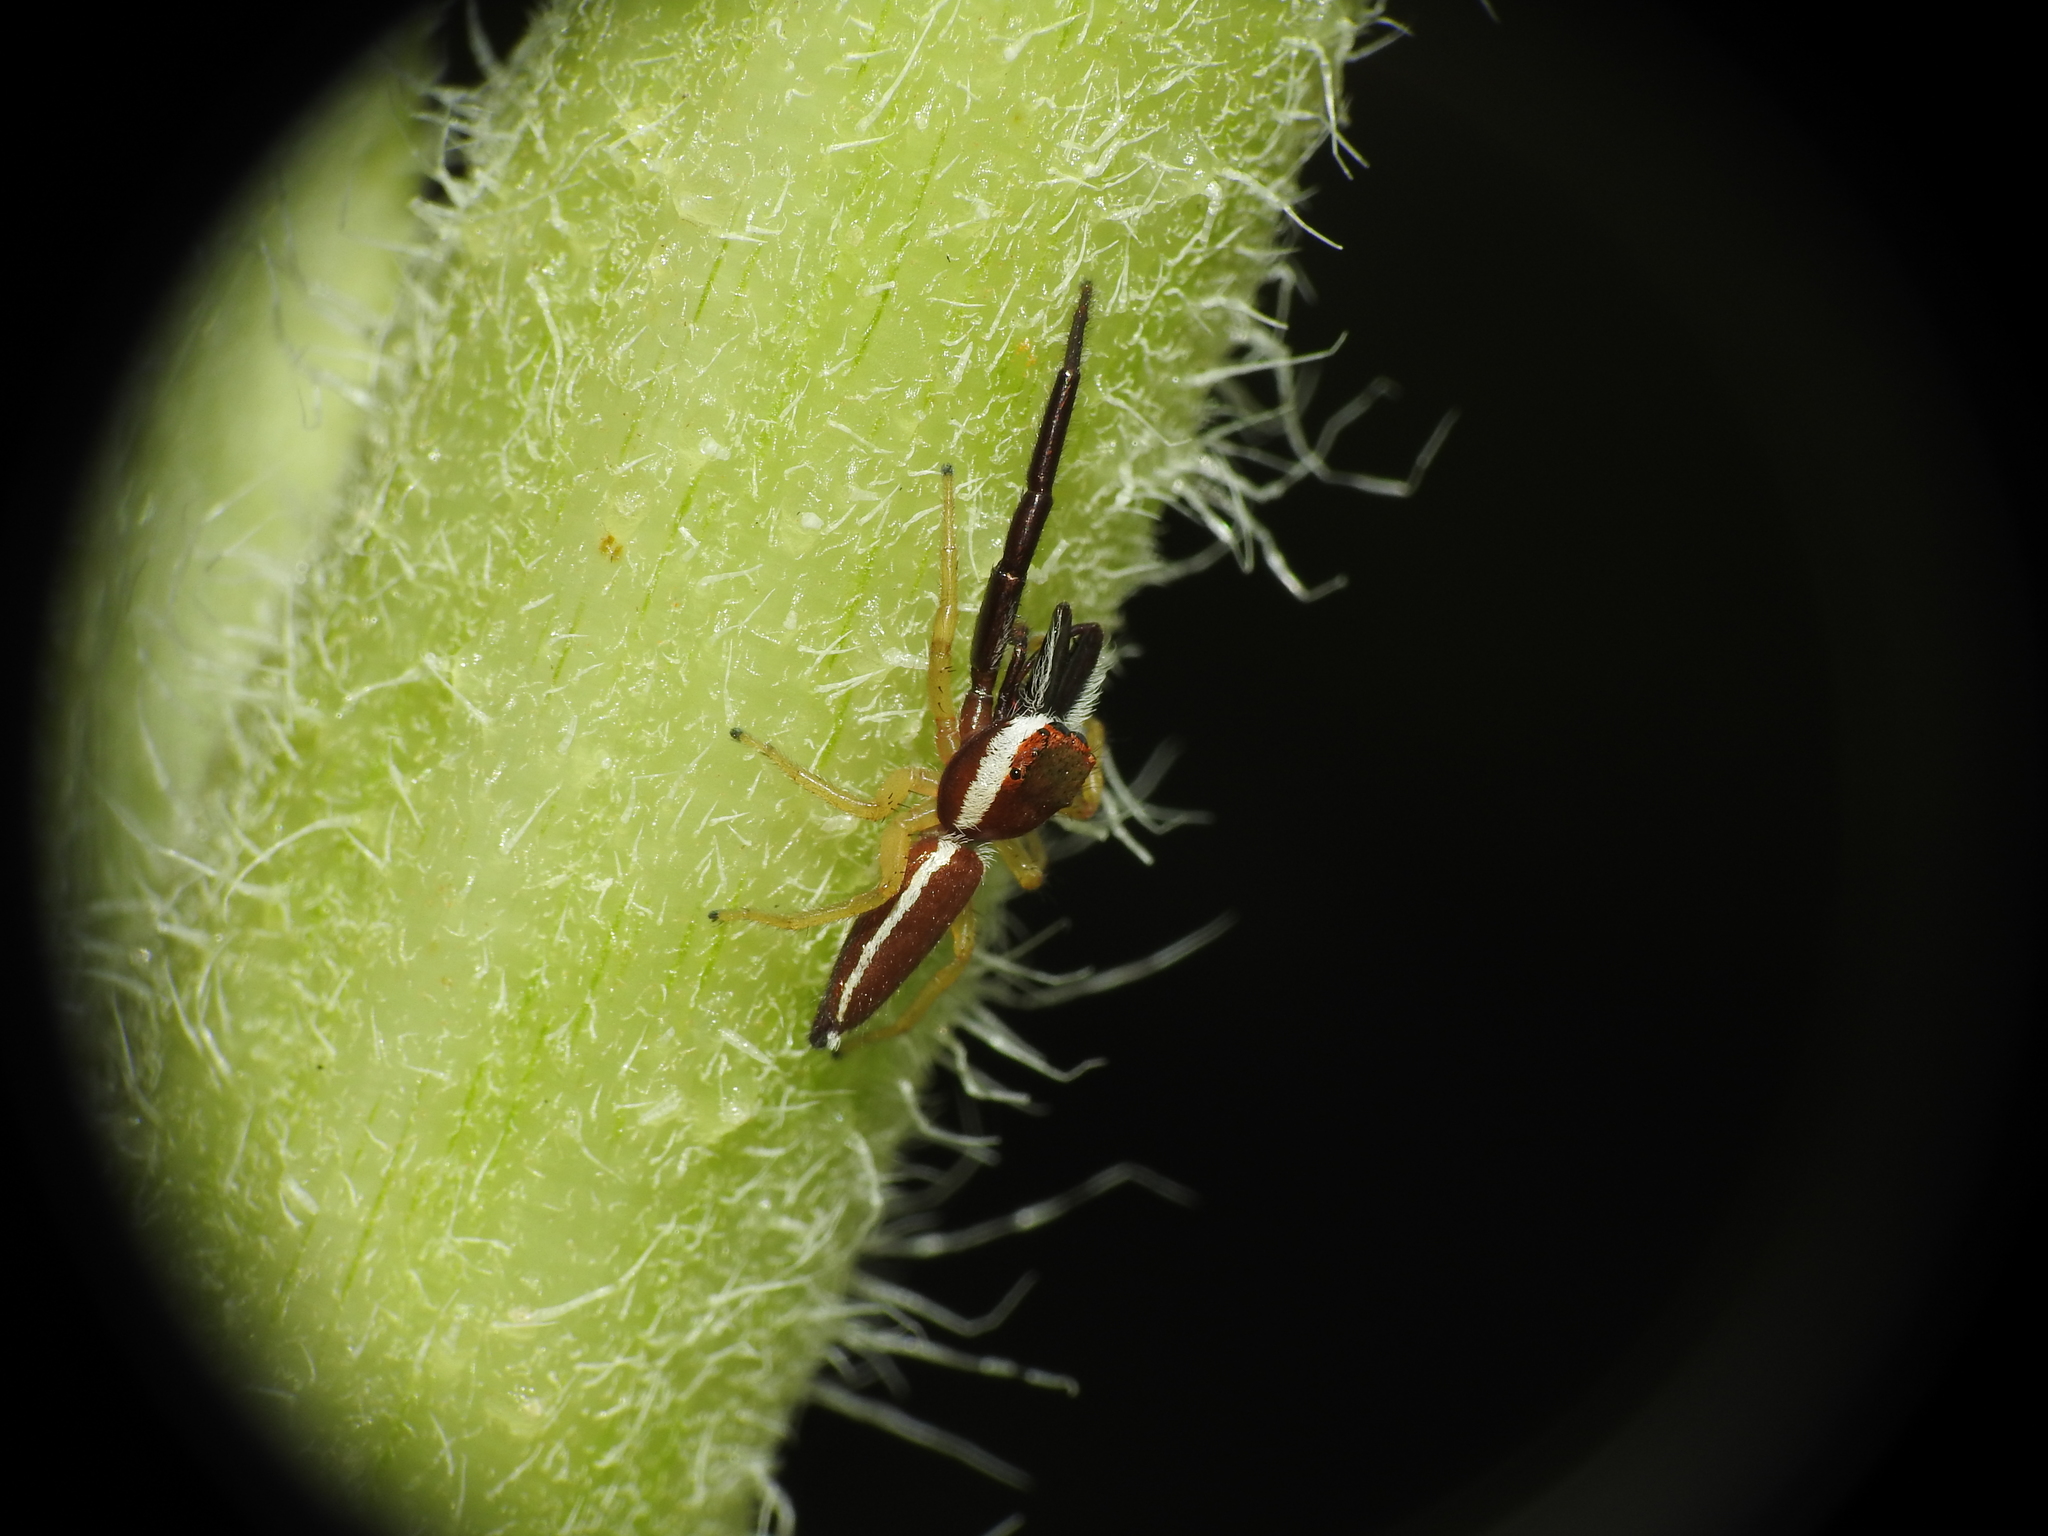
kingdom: Animalia
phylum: Arthropoda
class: Arachnida
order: Araneae
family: Salticidae
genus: Hentzia
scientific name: Hentzia palmarum
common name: Common hentz jumping spider
